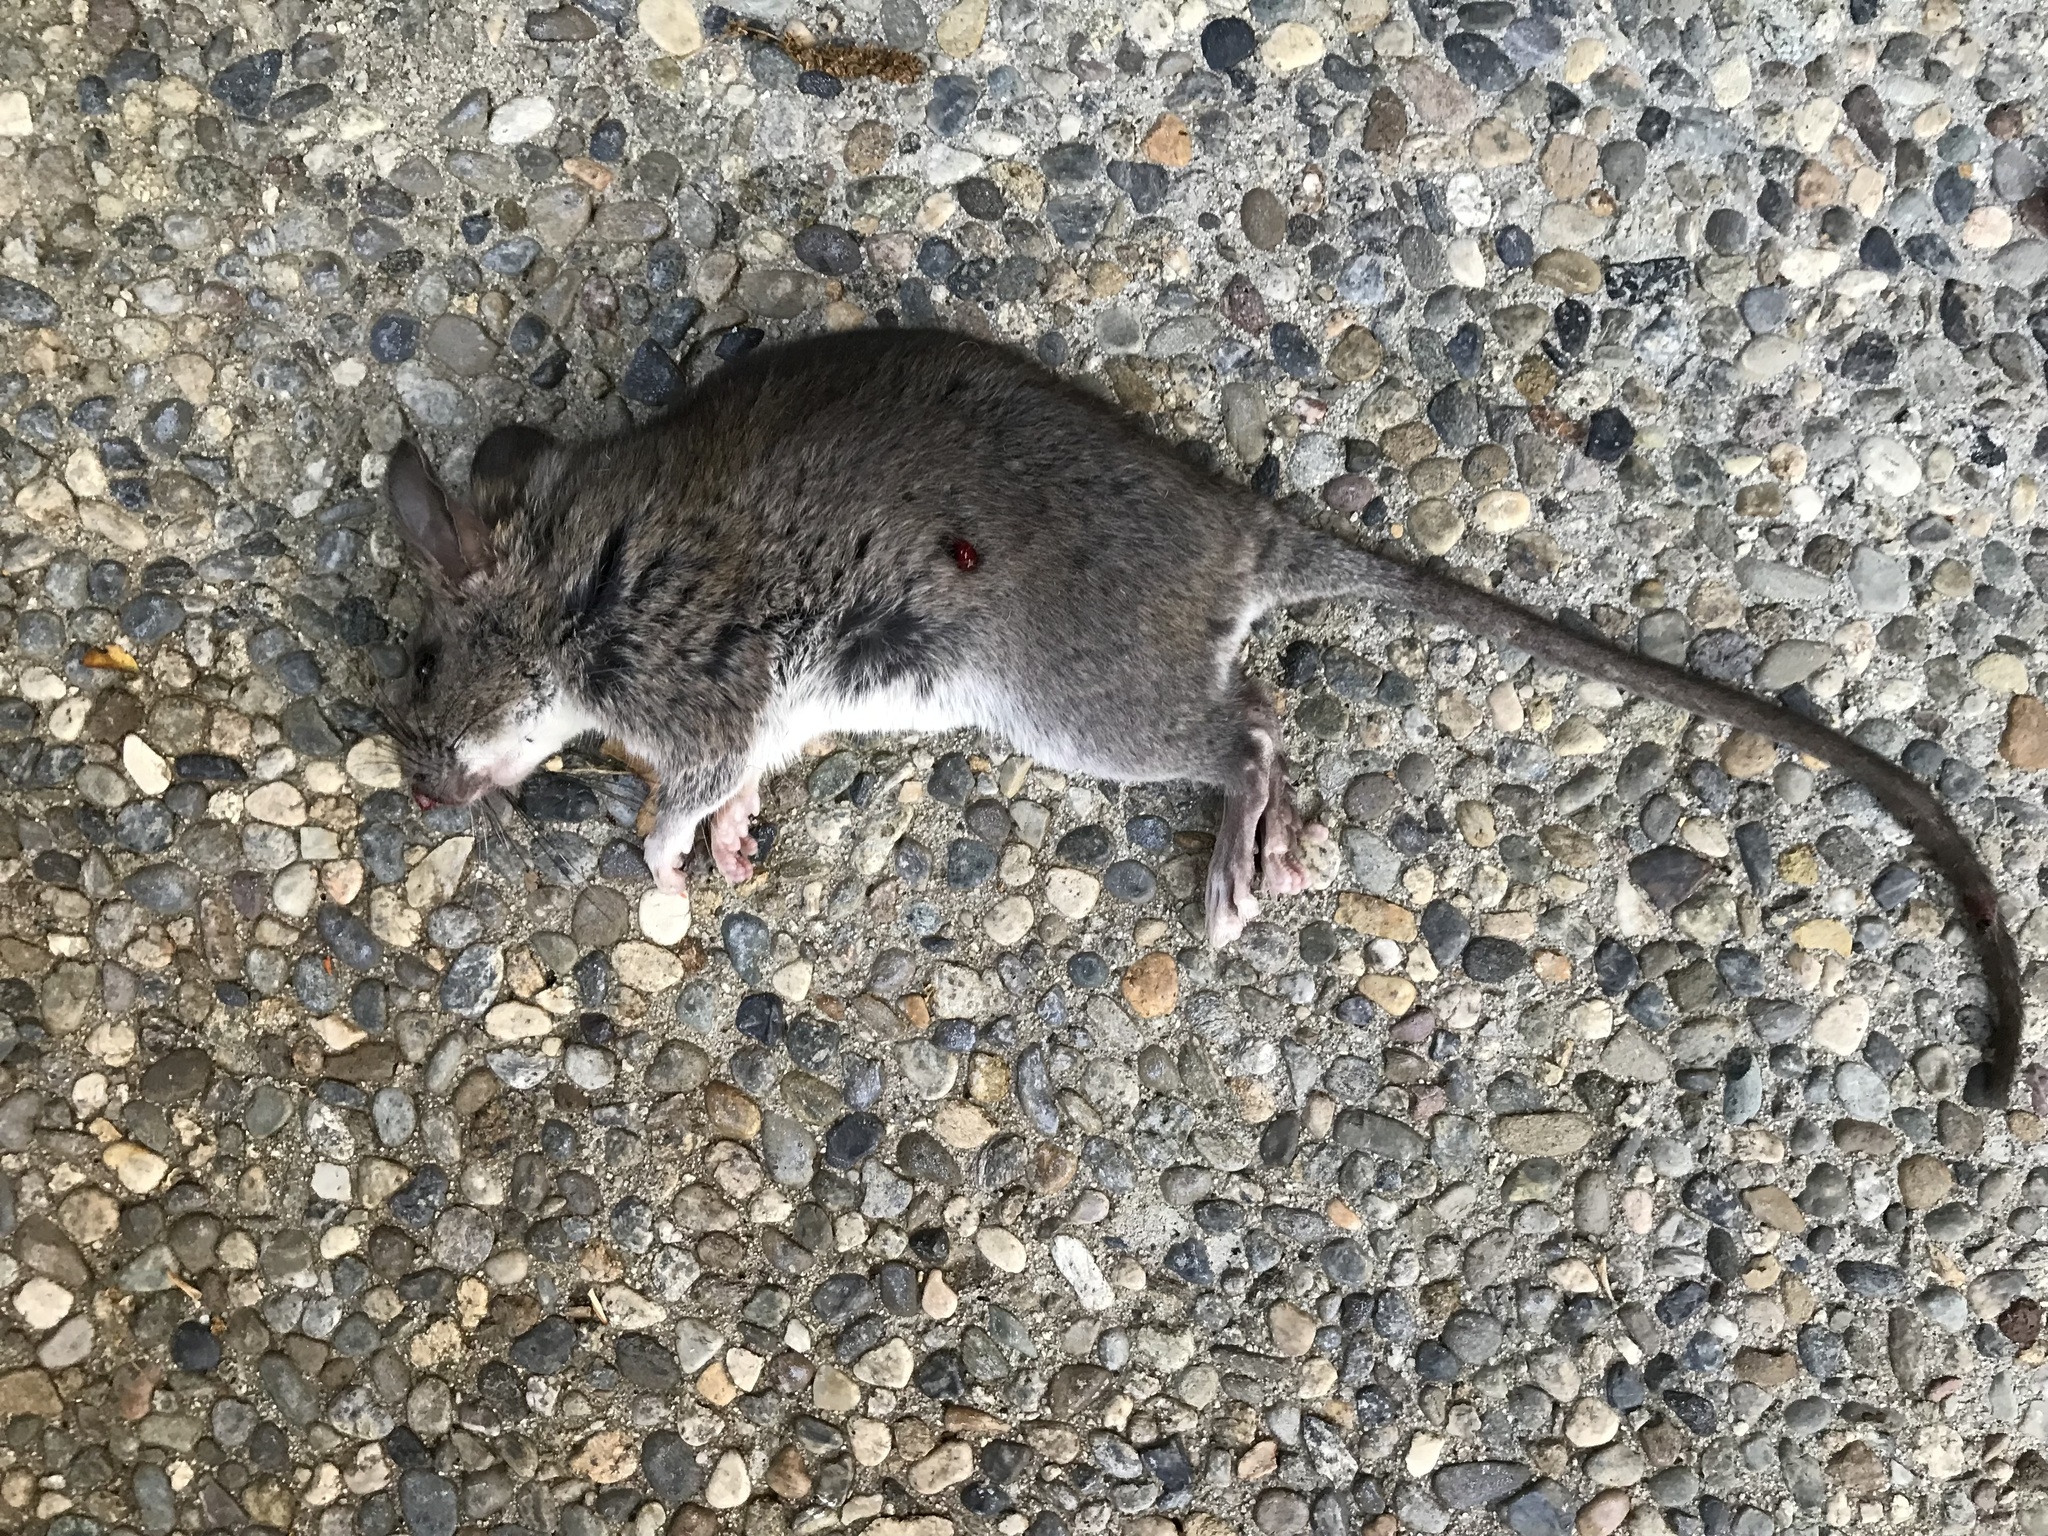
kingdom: Animalia
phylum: Chordata
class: Mammalia
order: Rodentia
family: Muridae
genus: Rattus
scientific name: Rattus rattus
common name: Black rat
